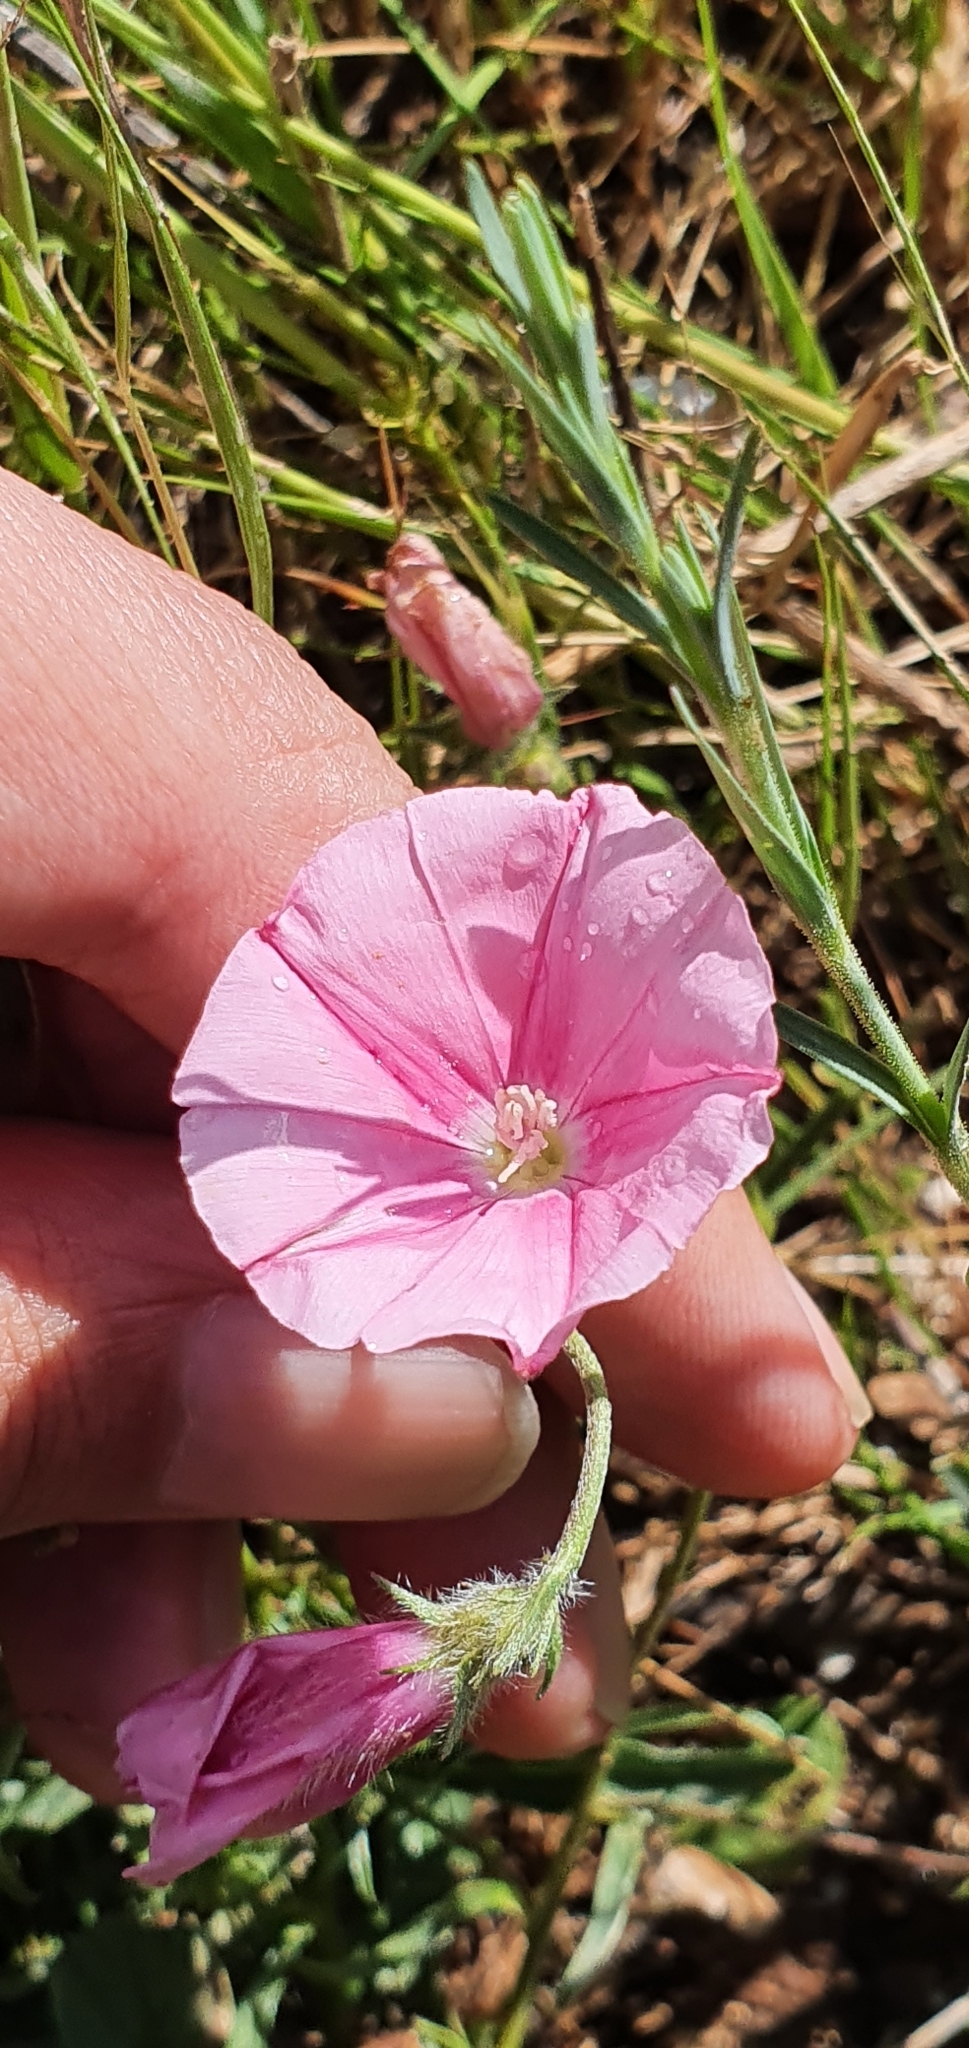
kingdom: Plantae
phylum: Tracheophyta
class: Magnoliopsida
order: Solanales
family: Convolvulaceae
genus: Convolvulus
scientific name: Convolvulus cantabrica
